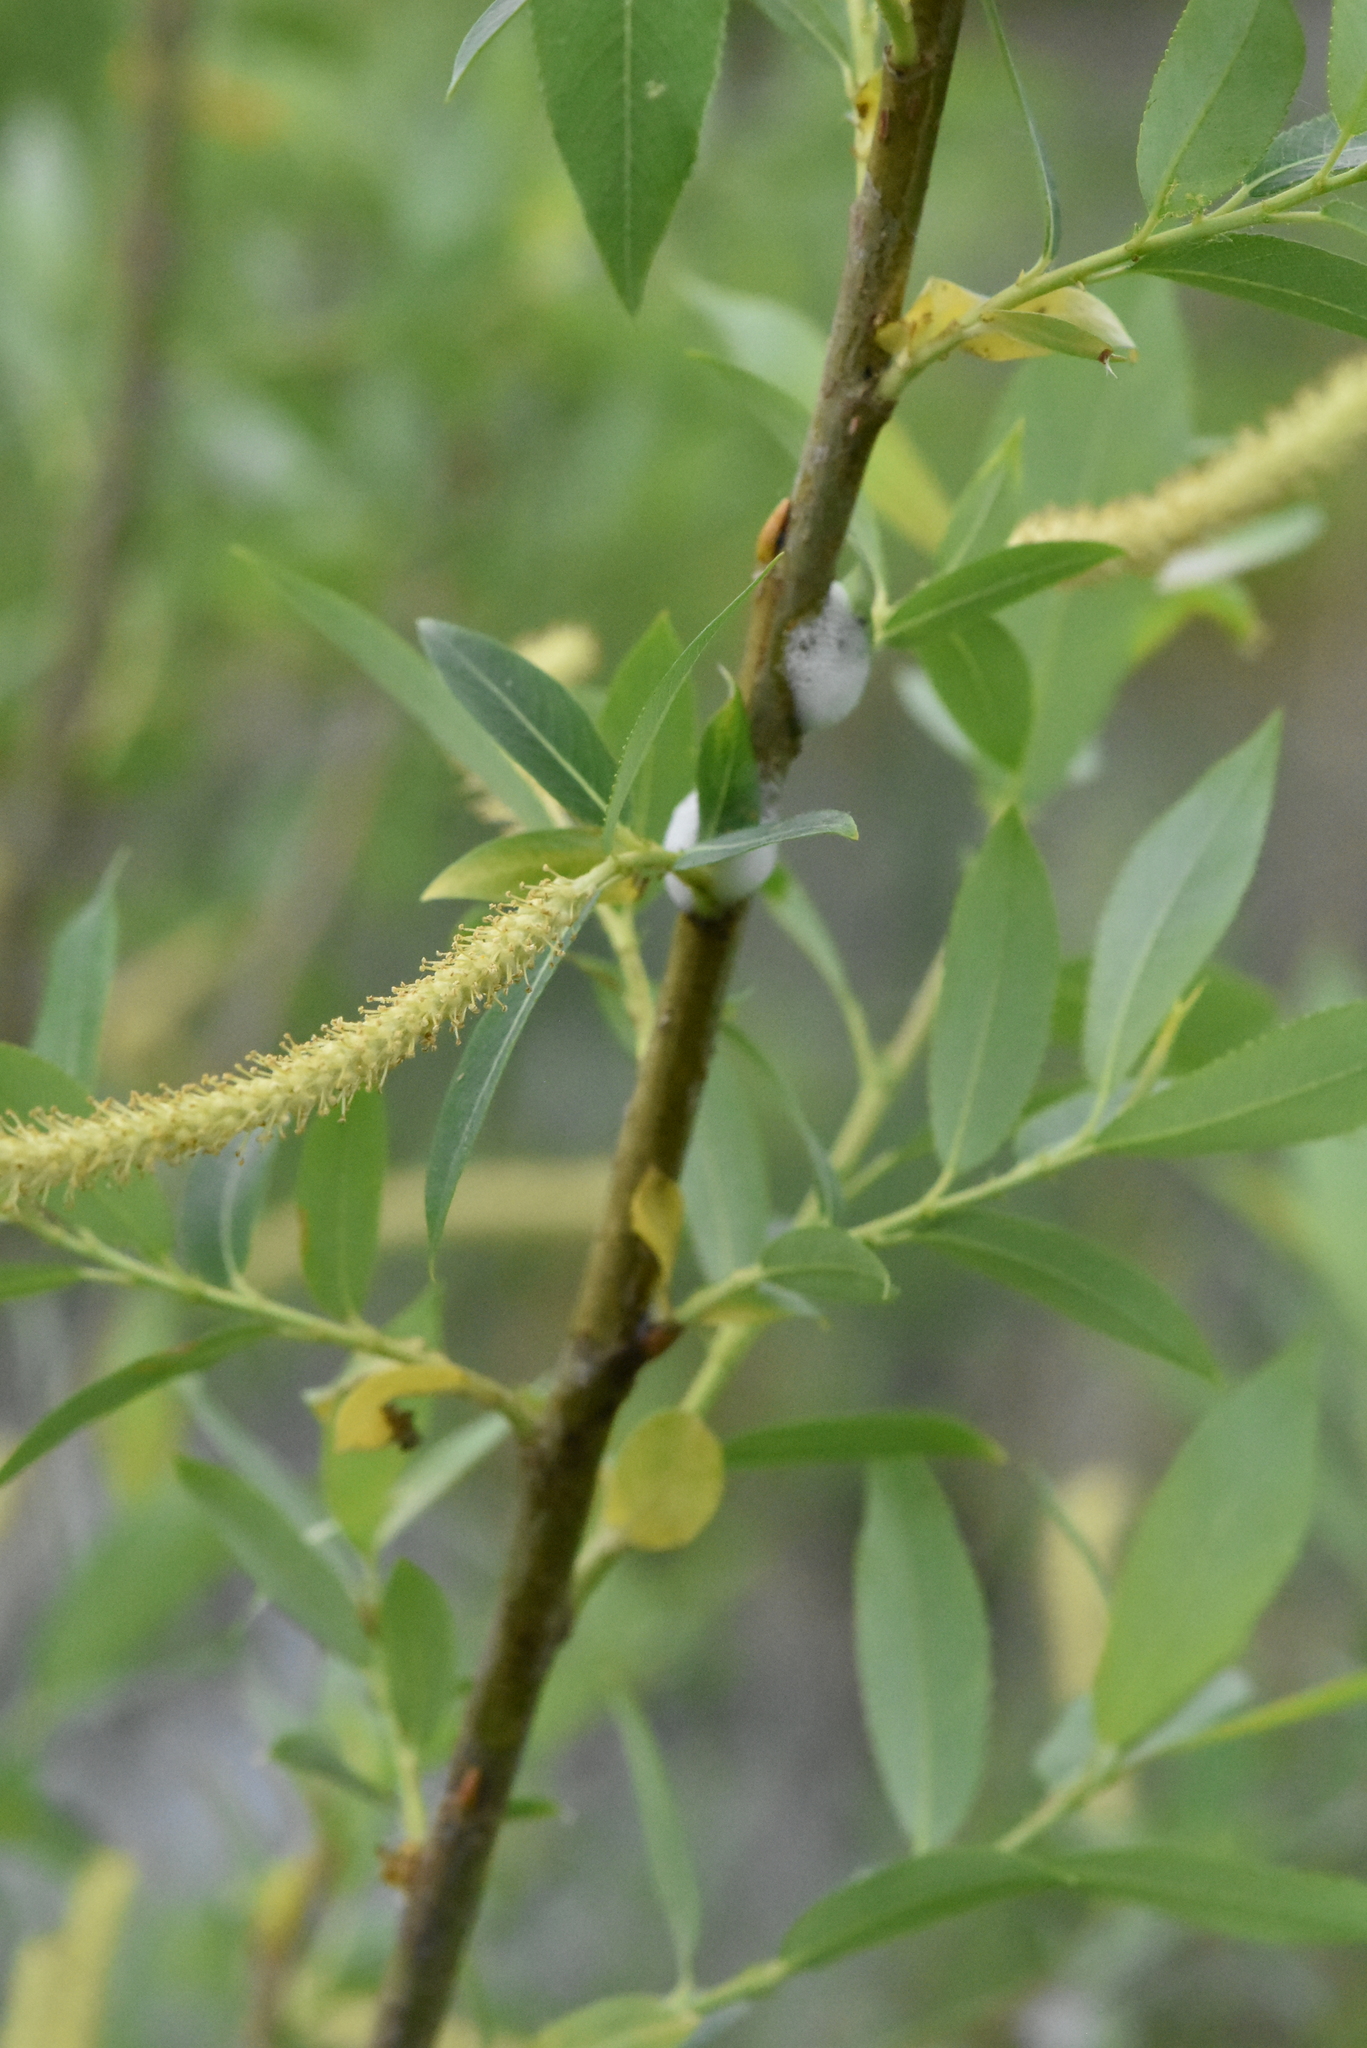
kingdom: Plantae
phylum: Tracheophyta
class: Magnoliopsida
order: Malpighiales
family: Salicaceae
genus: Salix
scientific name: Salix triandra
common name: Almond willow
